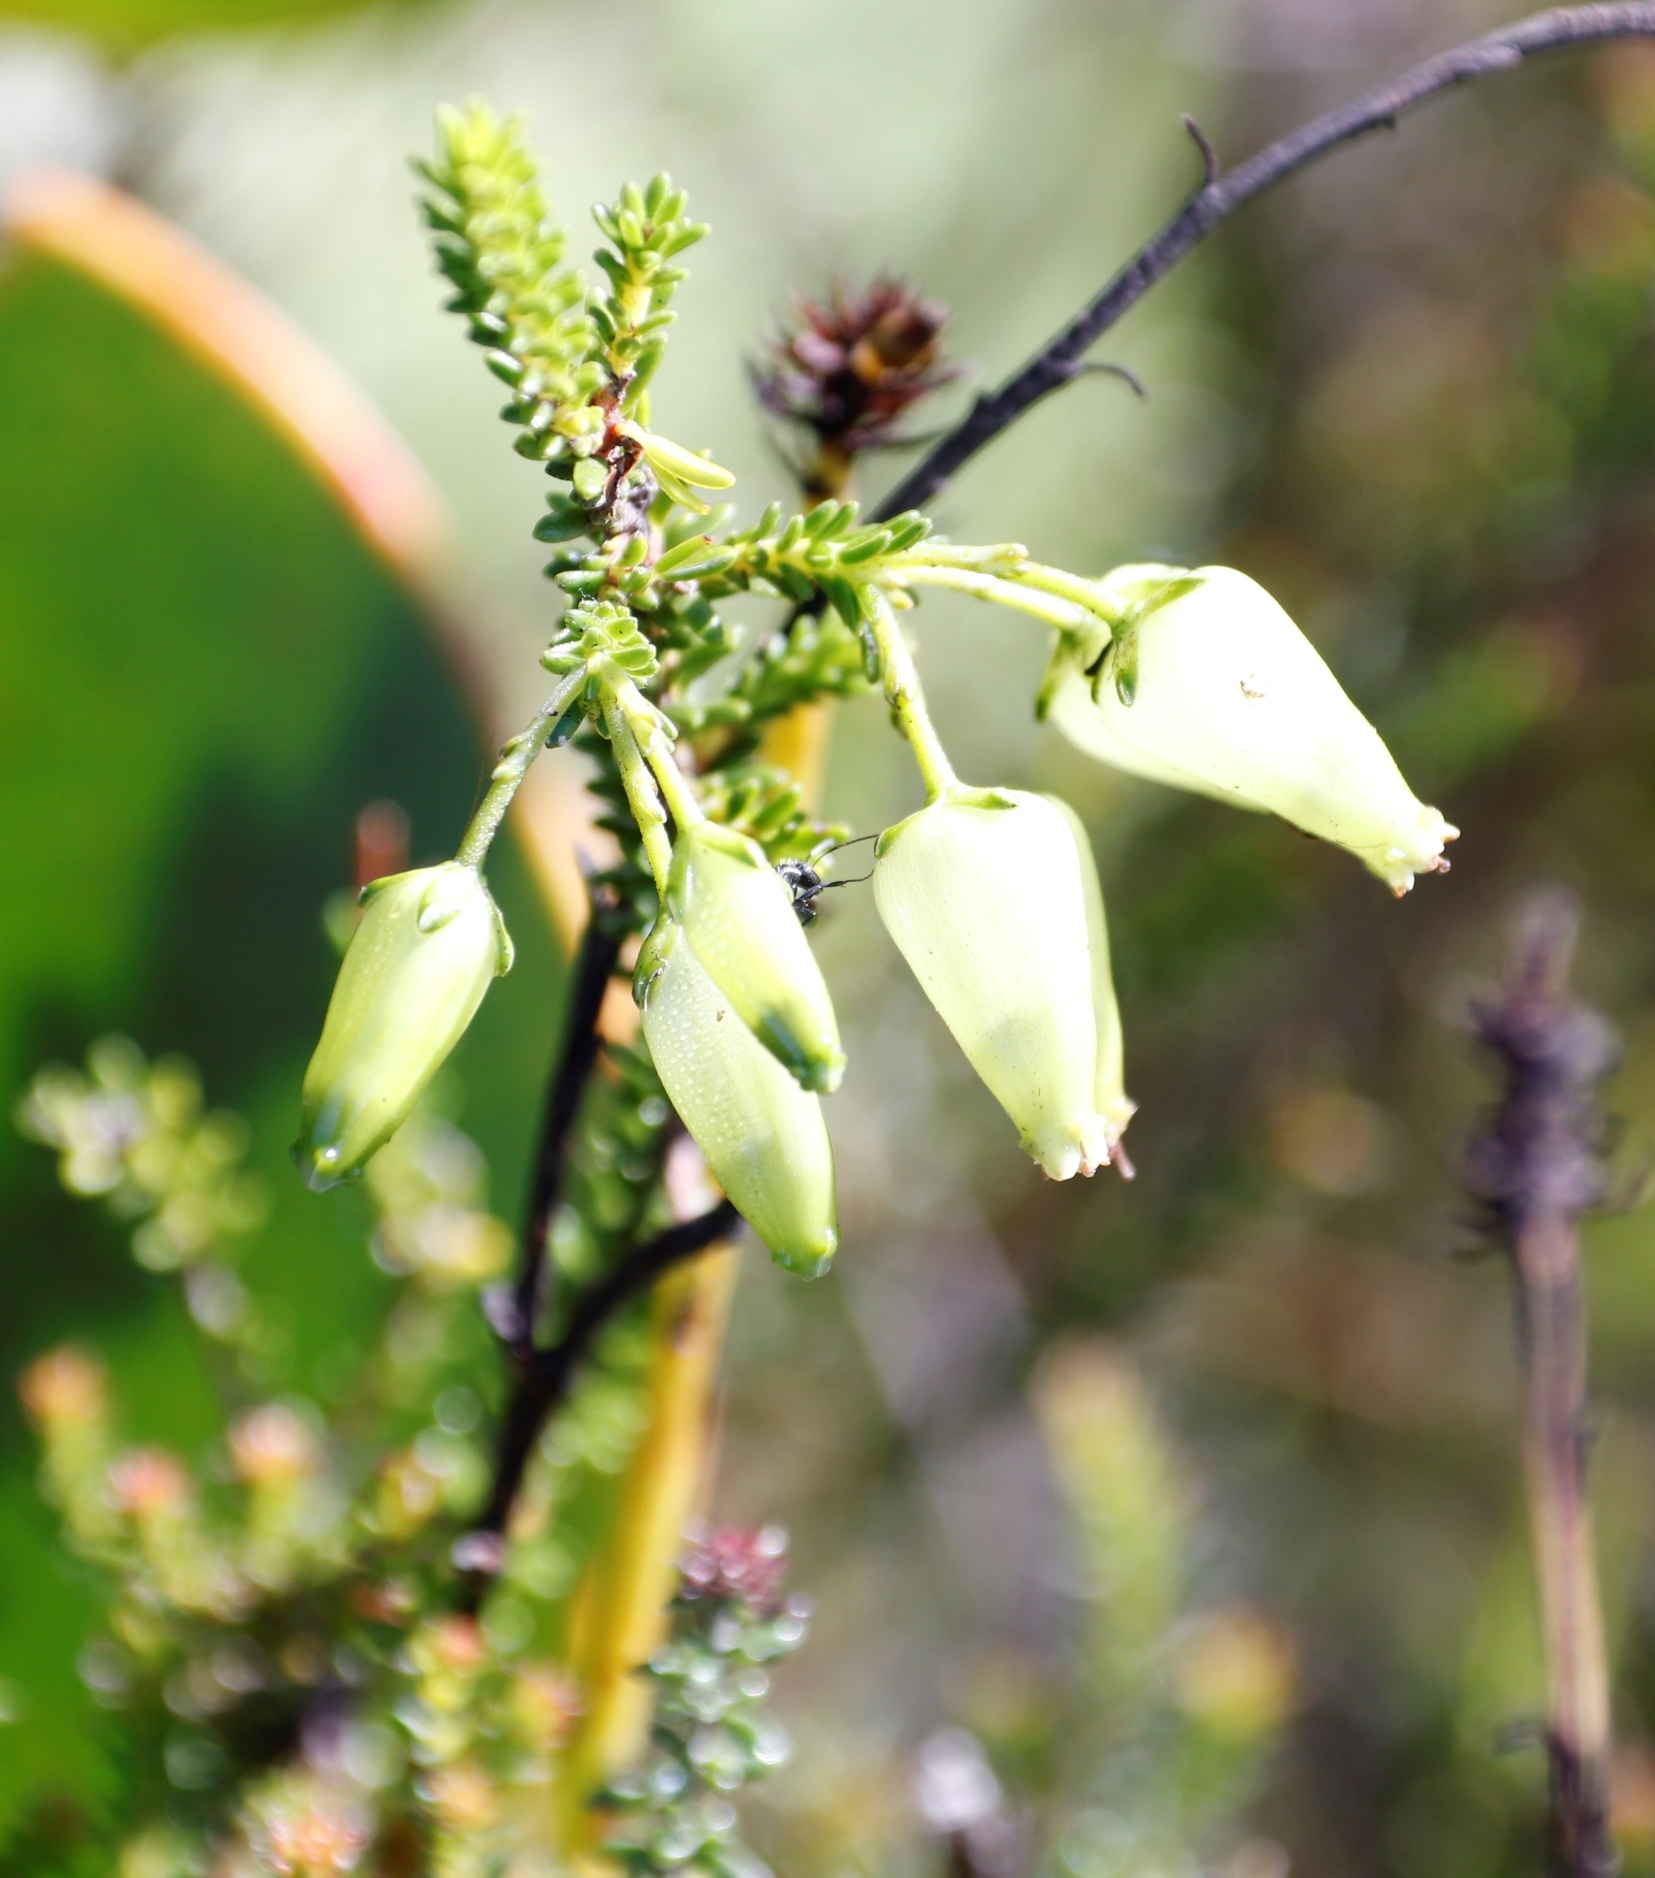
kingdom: Plantae
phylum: Tracheophyta
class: Magnoliopsida
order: Ericales
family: Ericaceae
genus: Erica
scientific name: Erica urna-viridis
